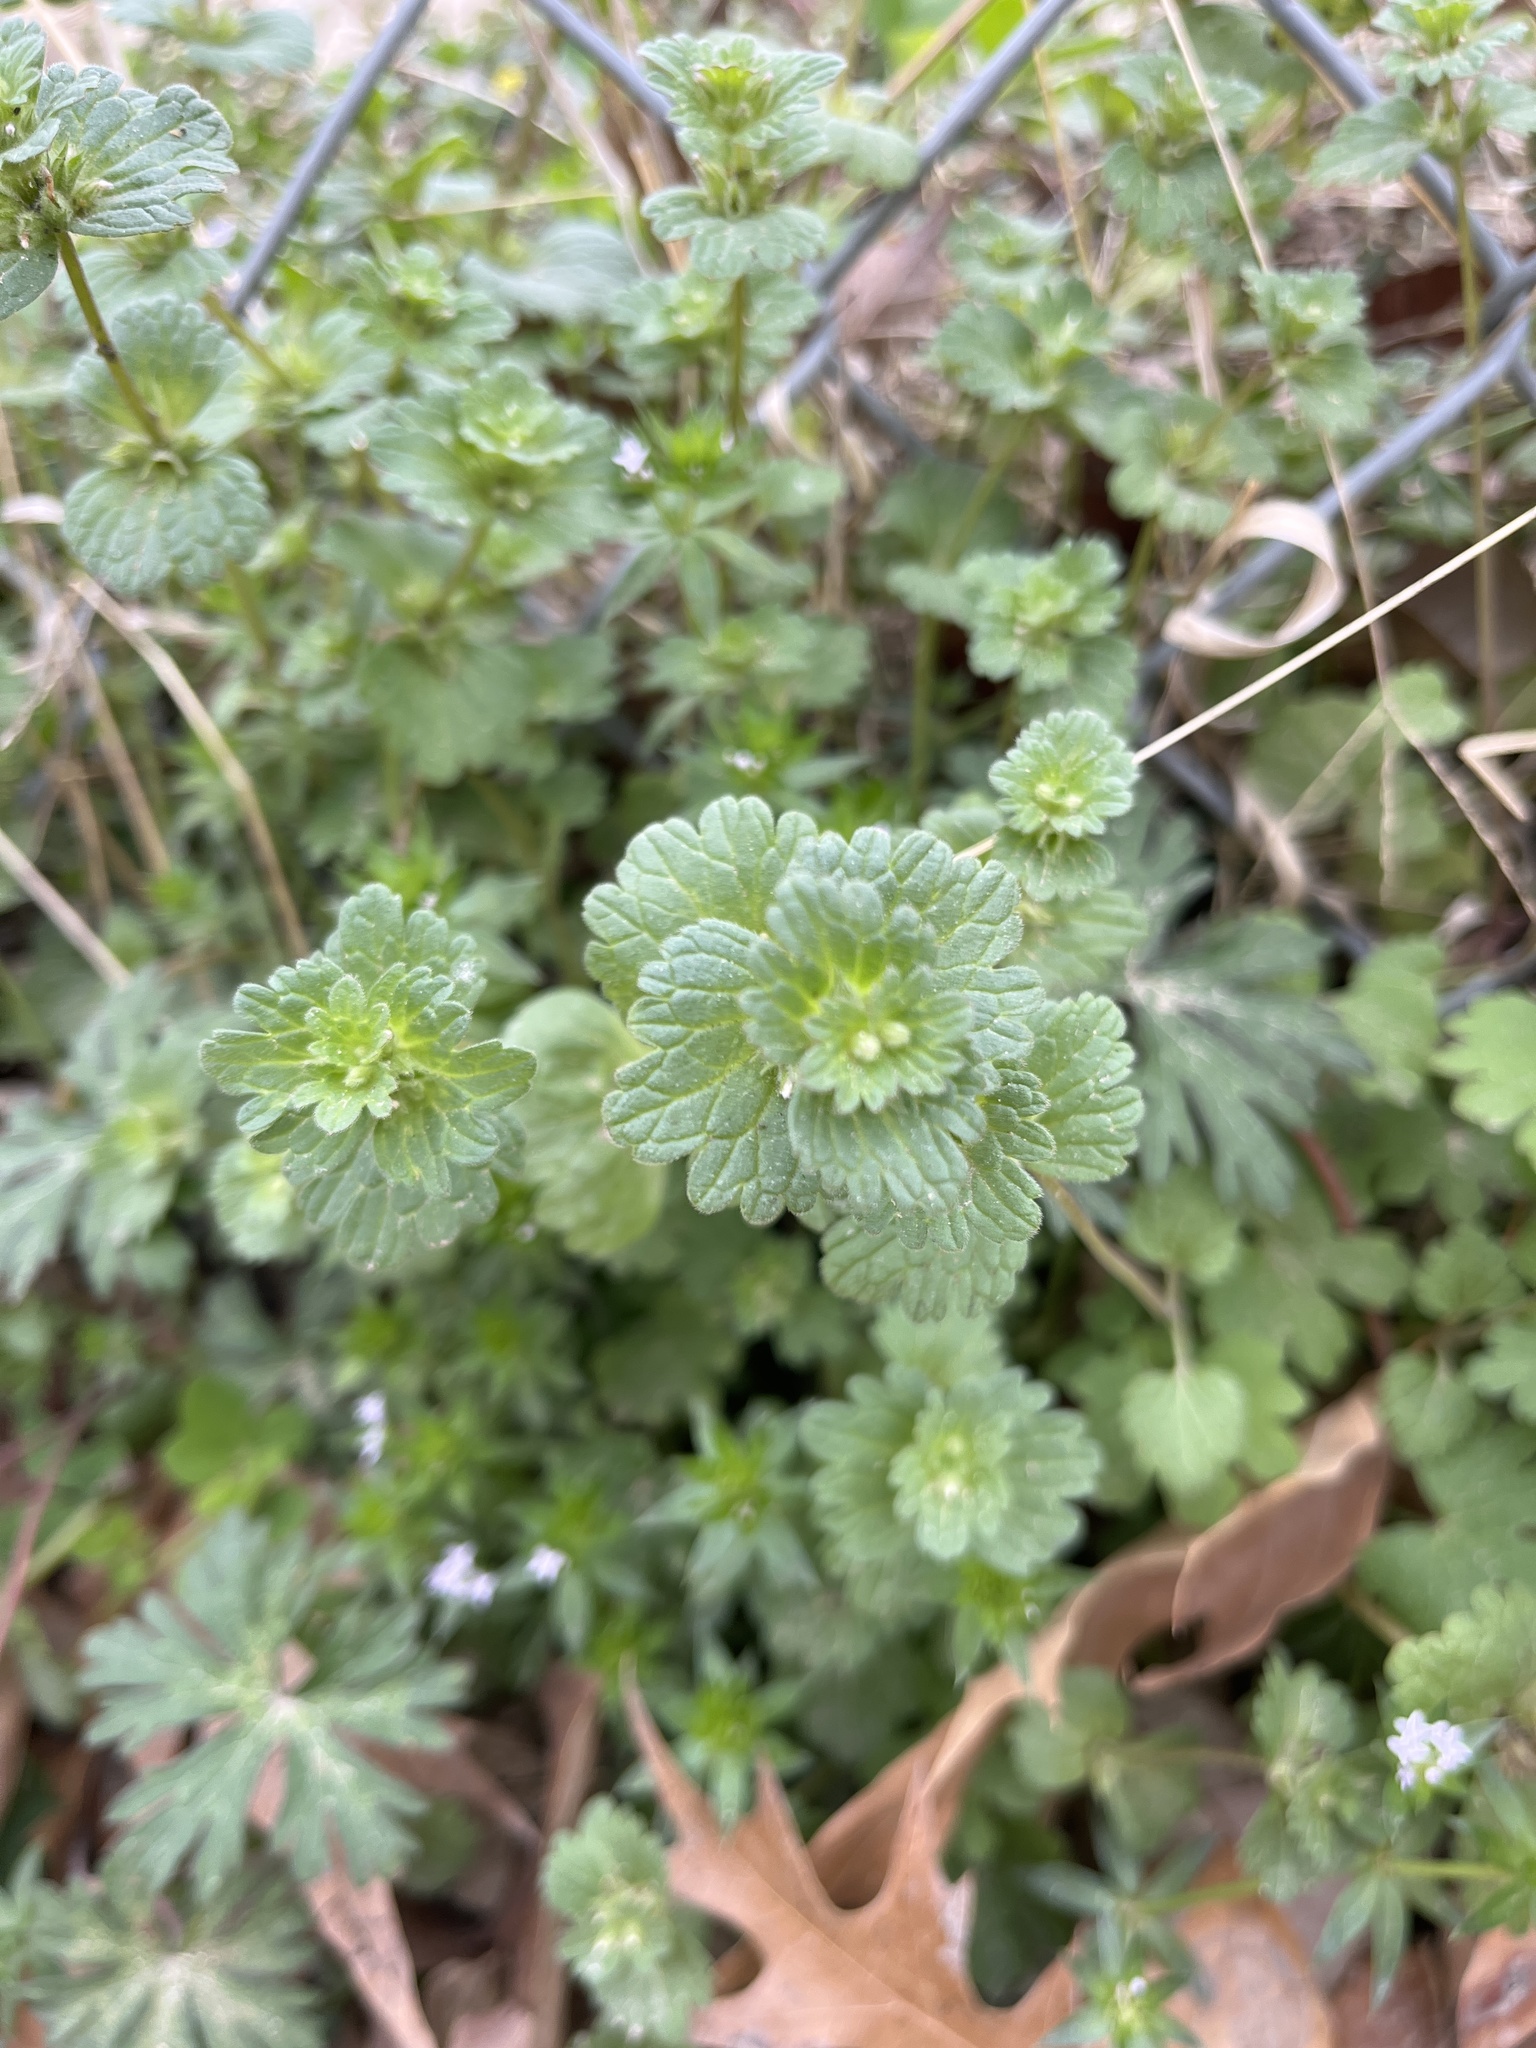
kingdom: Plantae
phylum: Tracheophyta
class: Magnoliopsida
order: Lamiales
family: Lamiaceae
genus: Lamium
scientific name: Lamium amplexicaule
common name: Henbit dead-nettle
